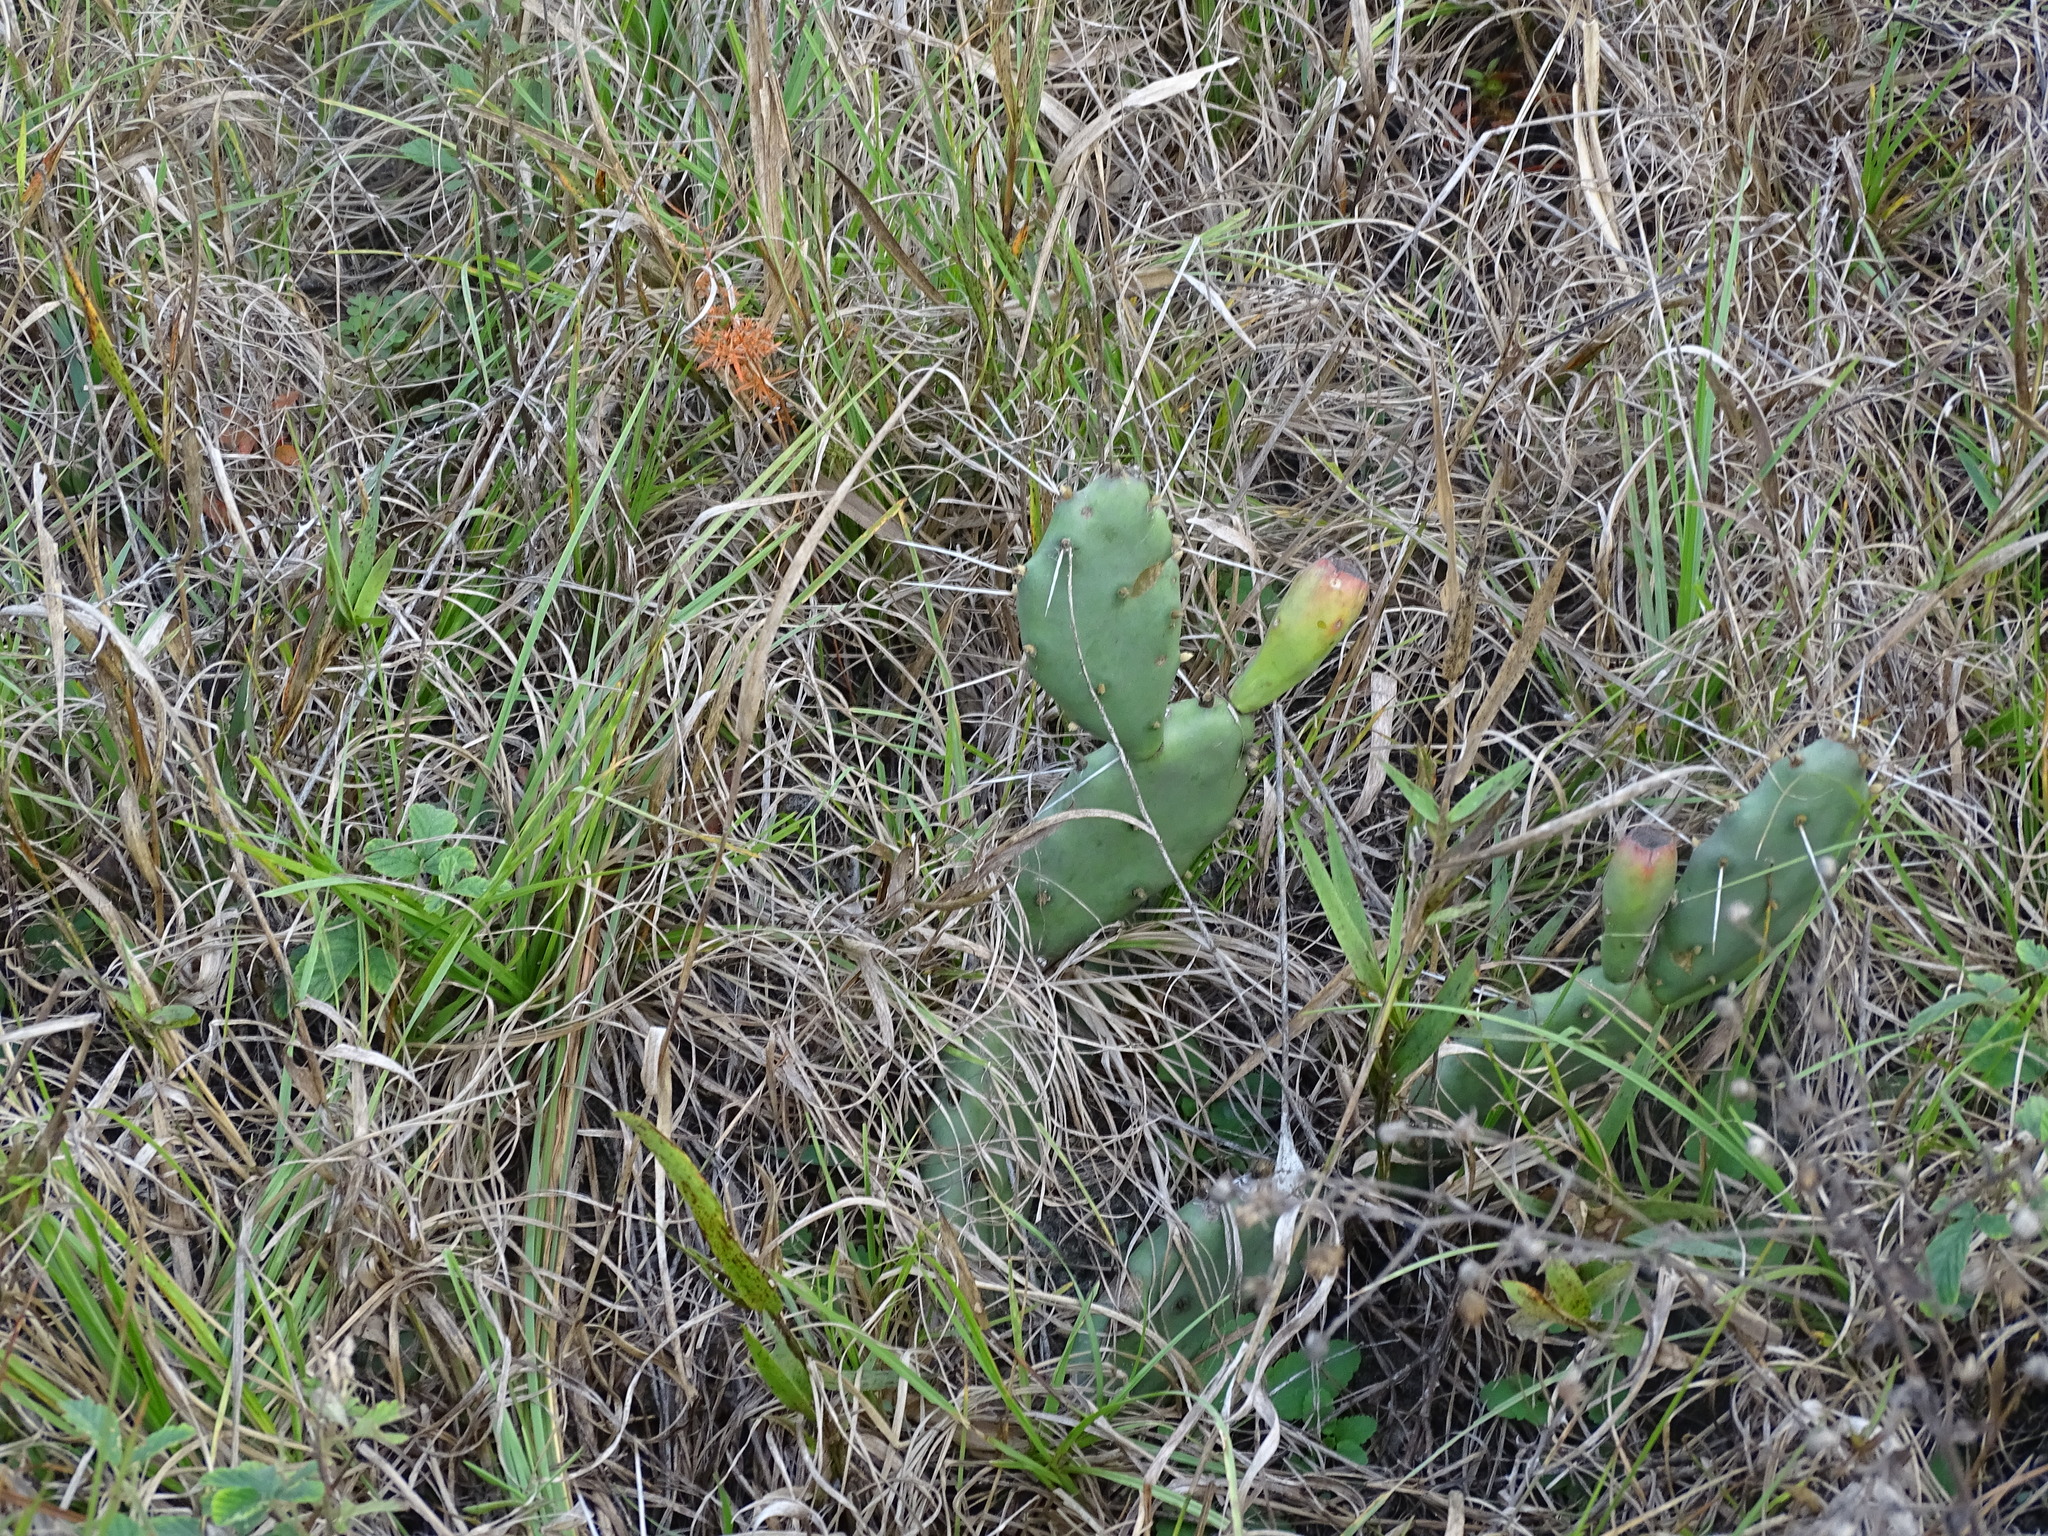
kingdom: Plantae
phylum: Tracheophyta
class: Magnoliopsida
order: Caryophyllales
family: Cactaceae
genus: Opuntia
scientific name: Opuntia austrina
